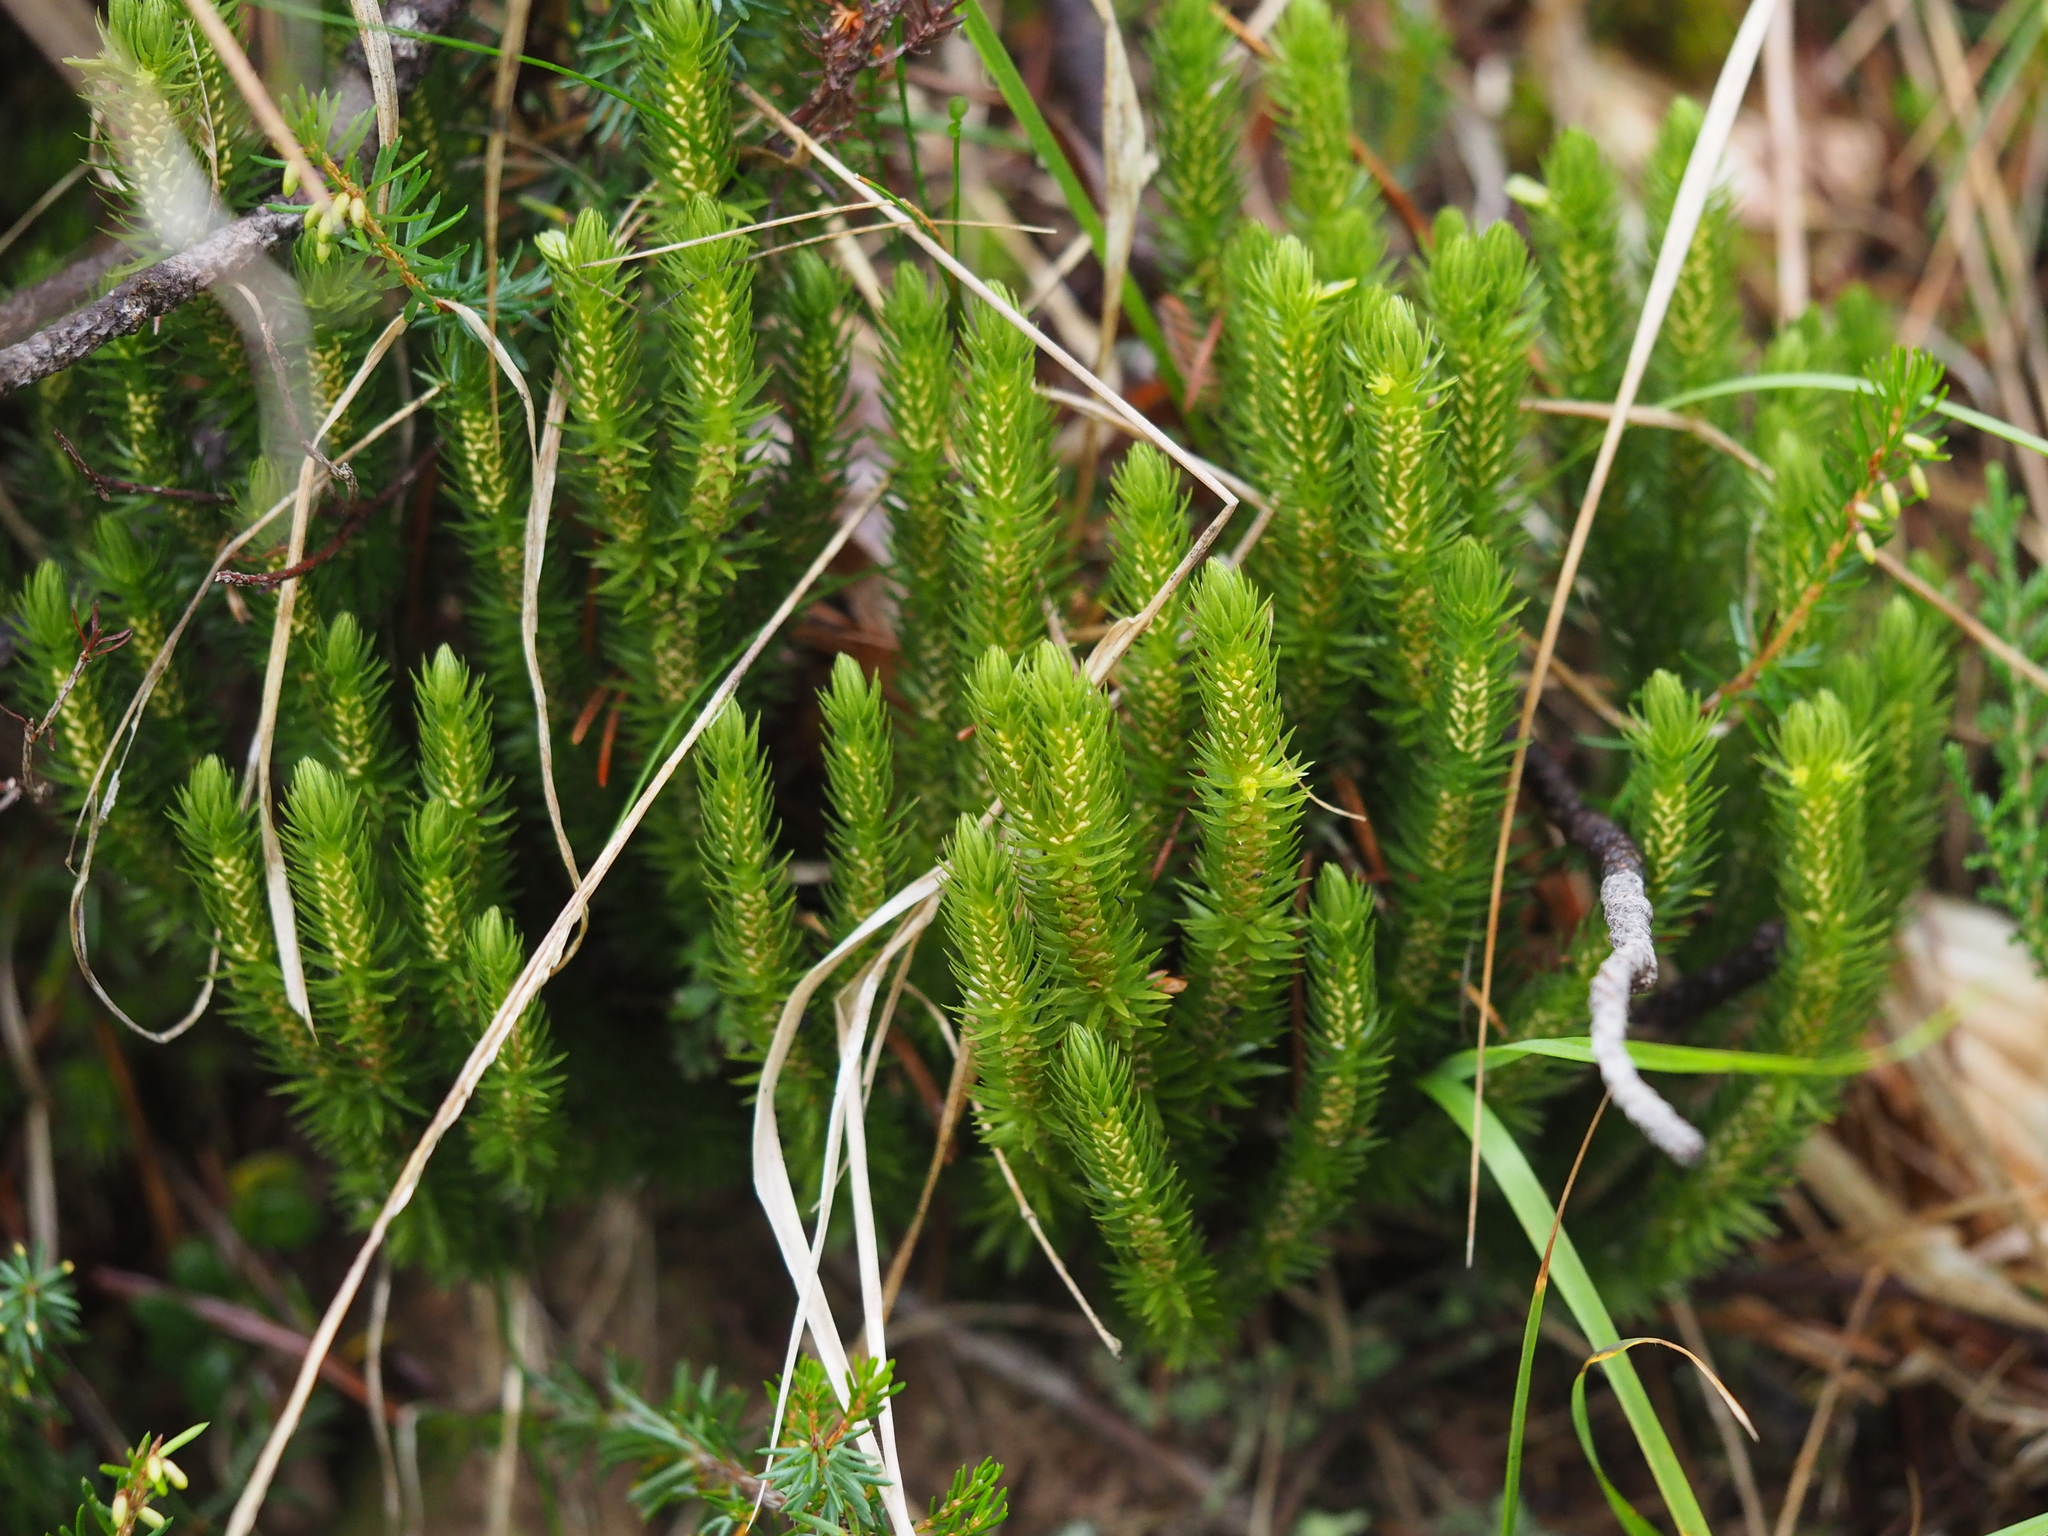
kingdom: Plantae
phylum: Tracheophyta
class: Lycopodiopsida
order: Lycopodiales
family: Lycopodiaceae
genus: Huperzia
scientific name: Huperzia selago
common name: Northern firmoss
